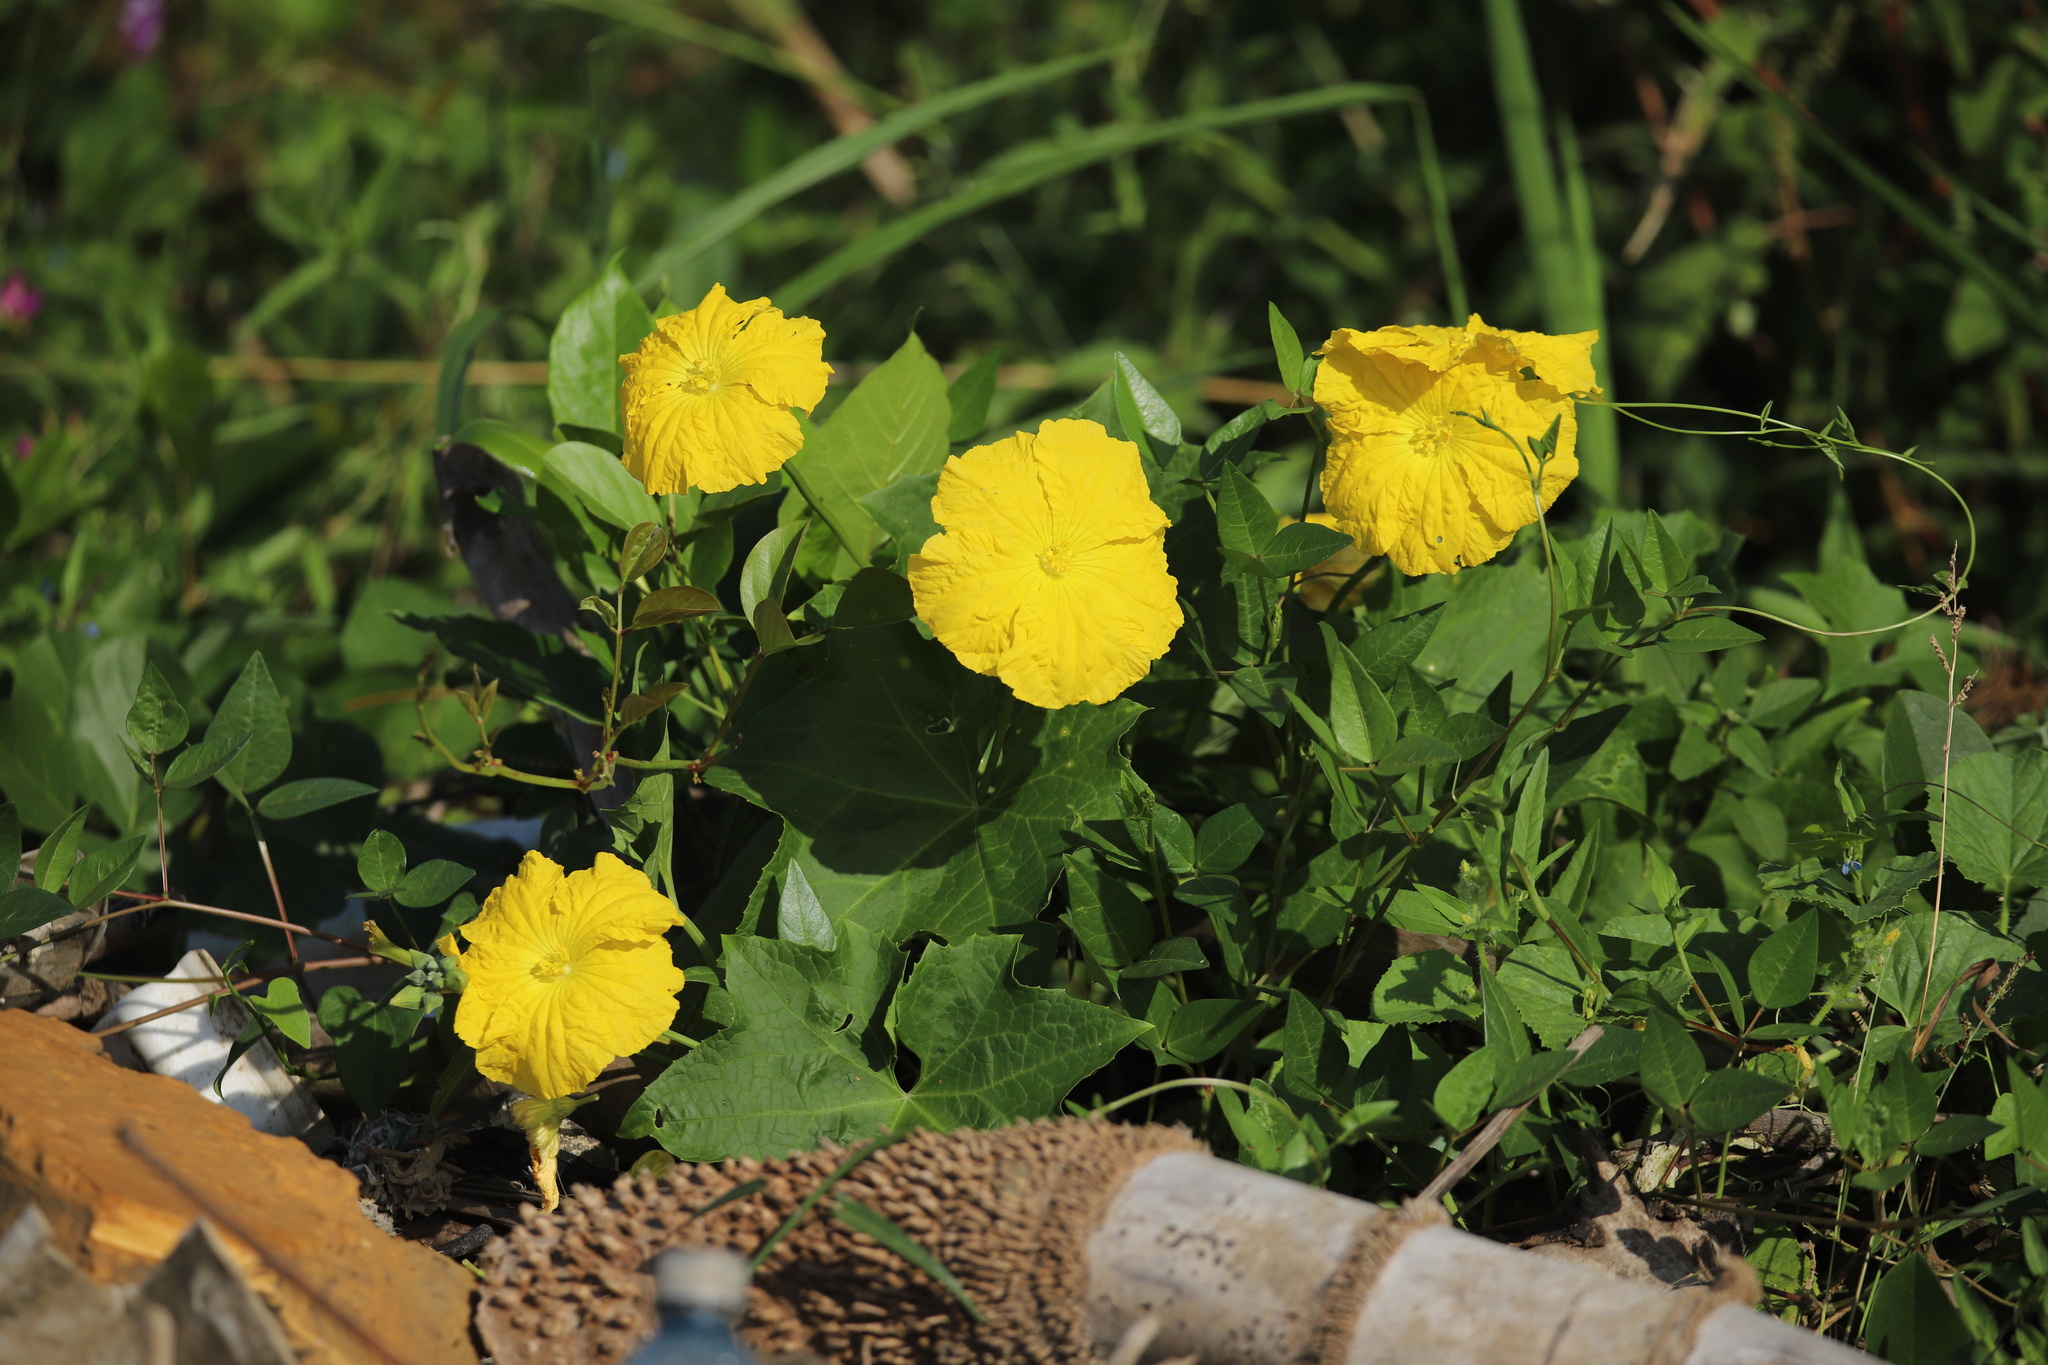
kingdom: Plantae
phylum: Tracheophyta
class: Magnoliopsida
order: Cucurbitales
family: Cucurbitaceae
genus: Luffa
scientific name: Luffa aegyptiaca
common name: Sponge gourd
